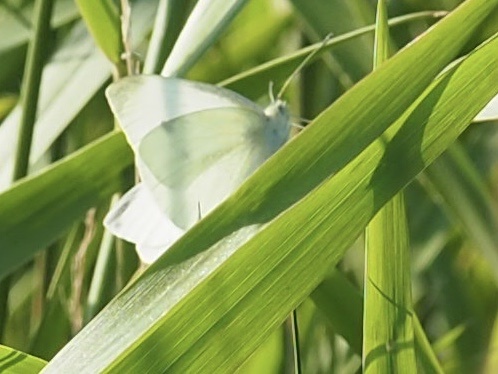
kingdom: Animalia
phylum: Arthropoda
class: Insecta
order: Lepidoptera
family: Pieridae
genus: Pieris
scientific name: Pieris rapae
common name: Small white
